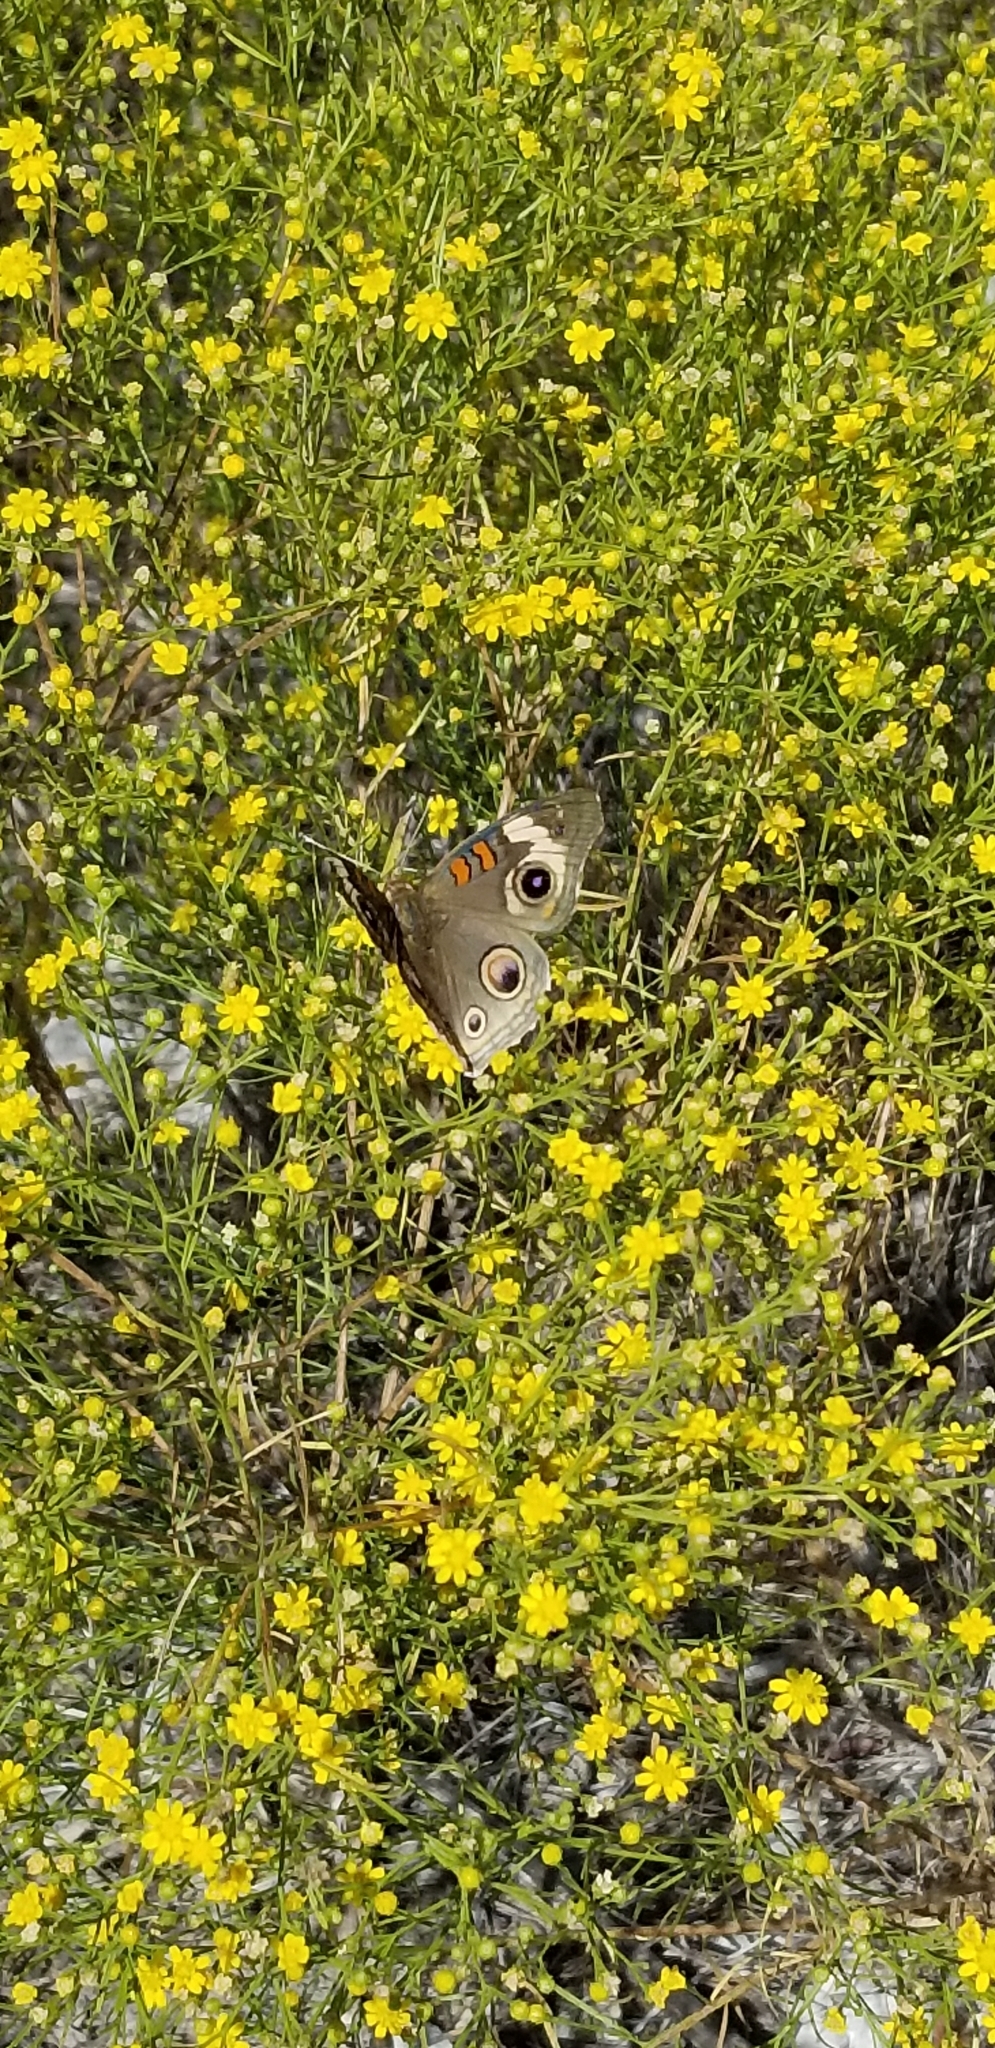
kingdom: Animalia
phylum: Arthropoda
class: Insecta
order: Lepidoptera
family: Nymphalidae
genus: Junonia
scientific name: Junonia coenia
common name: Common buckeye
